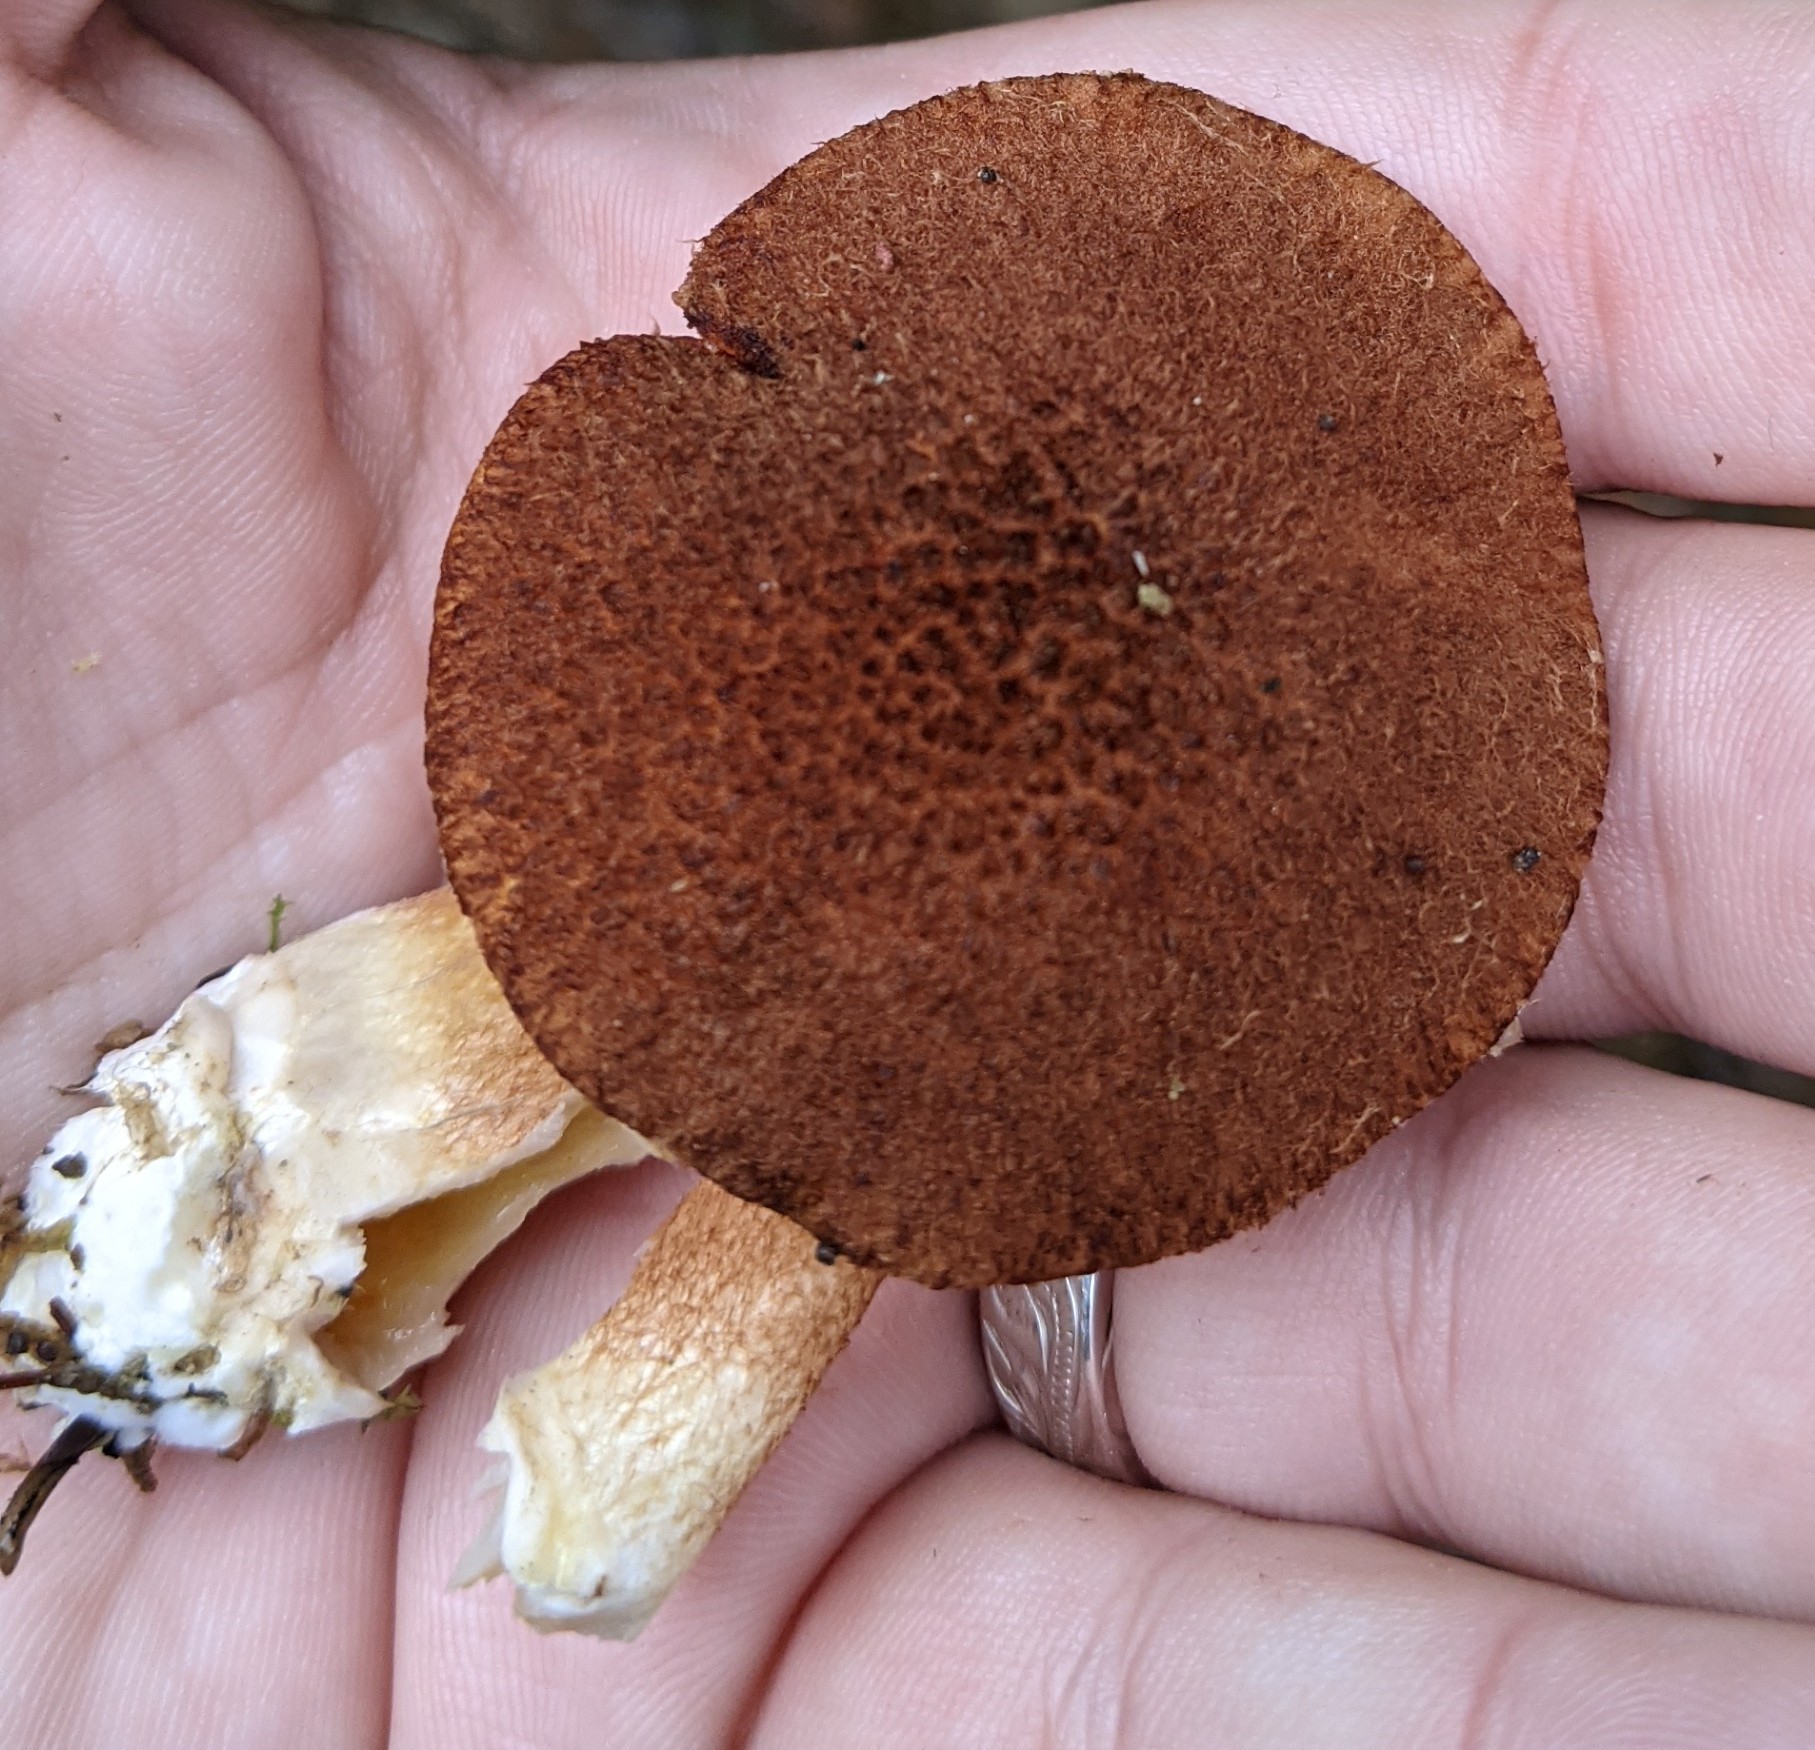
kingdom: Fungi
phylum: Basidiomycota
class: Agaricomycetes
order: Boletales
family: Suillaceae
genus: Boletinus
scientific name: Boletinus ampliporus
